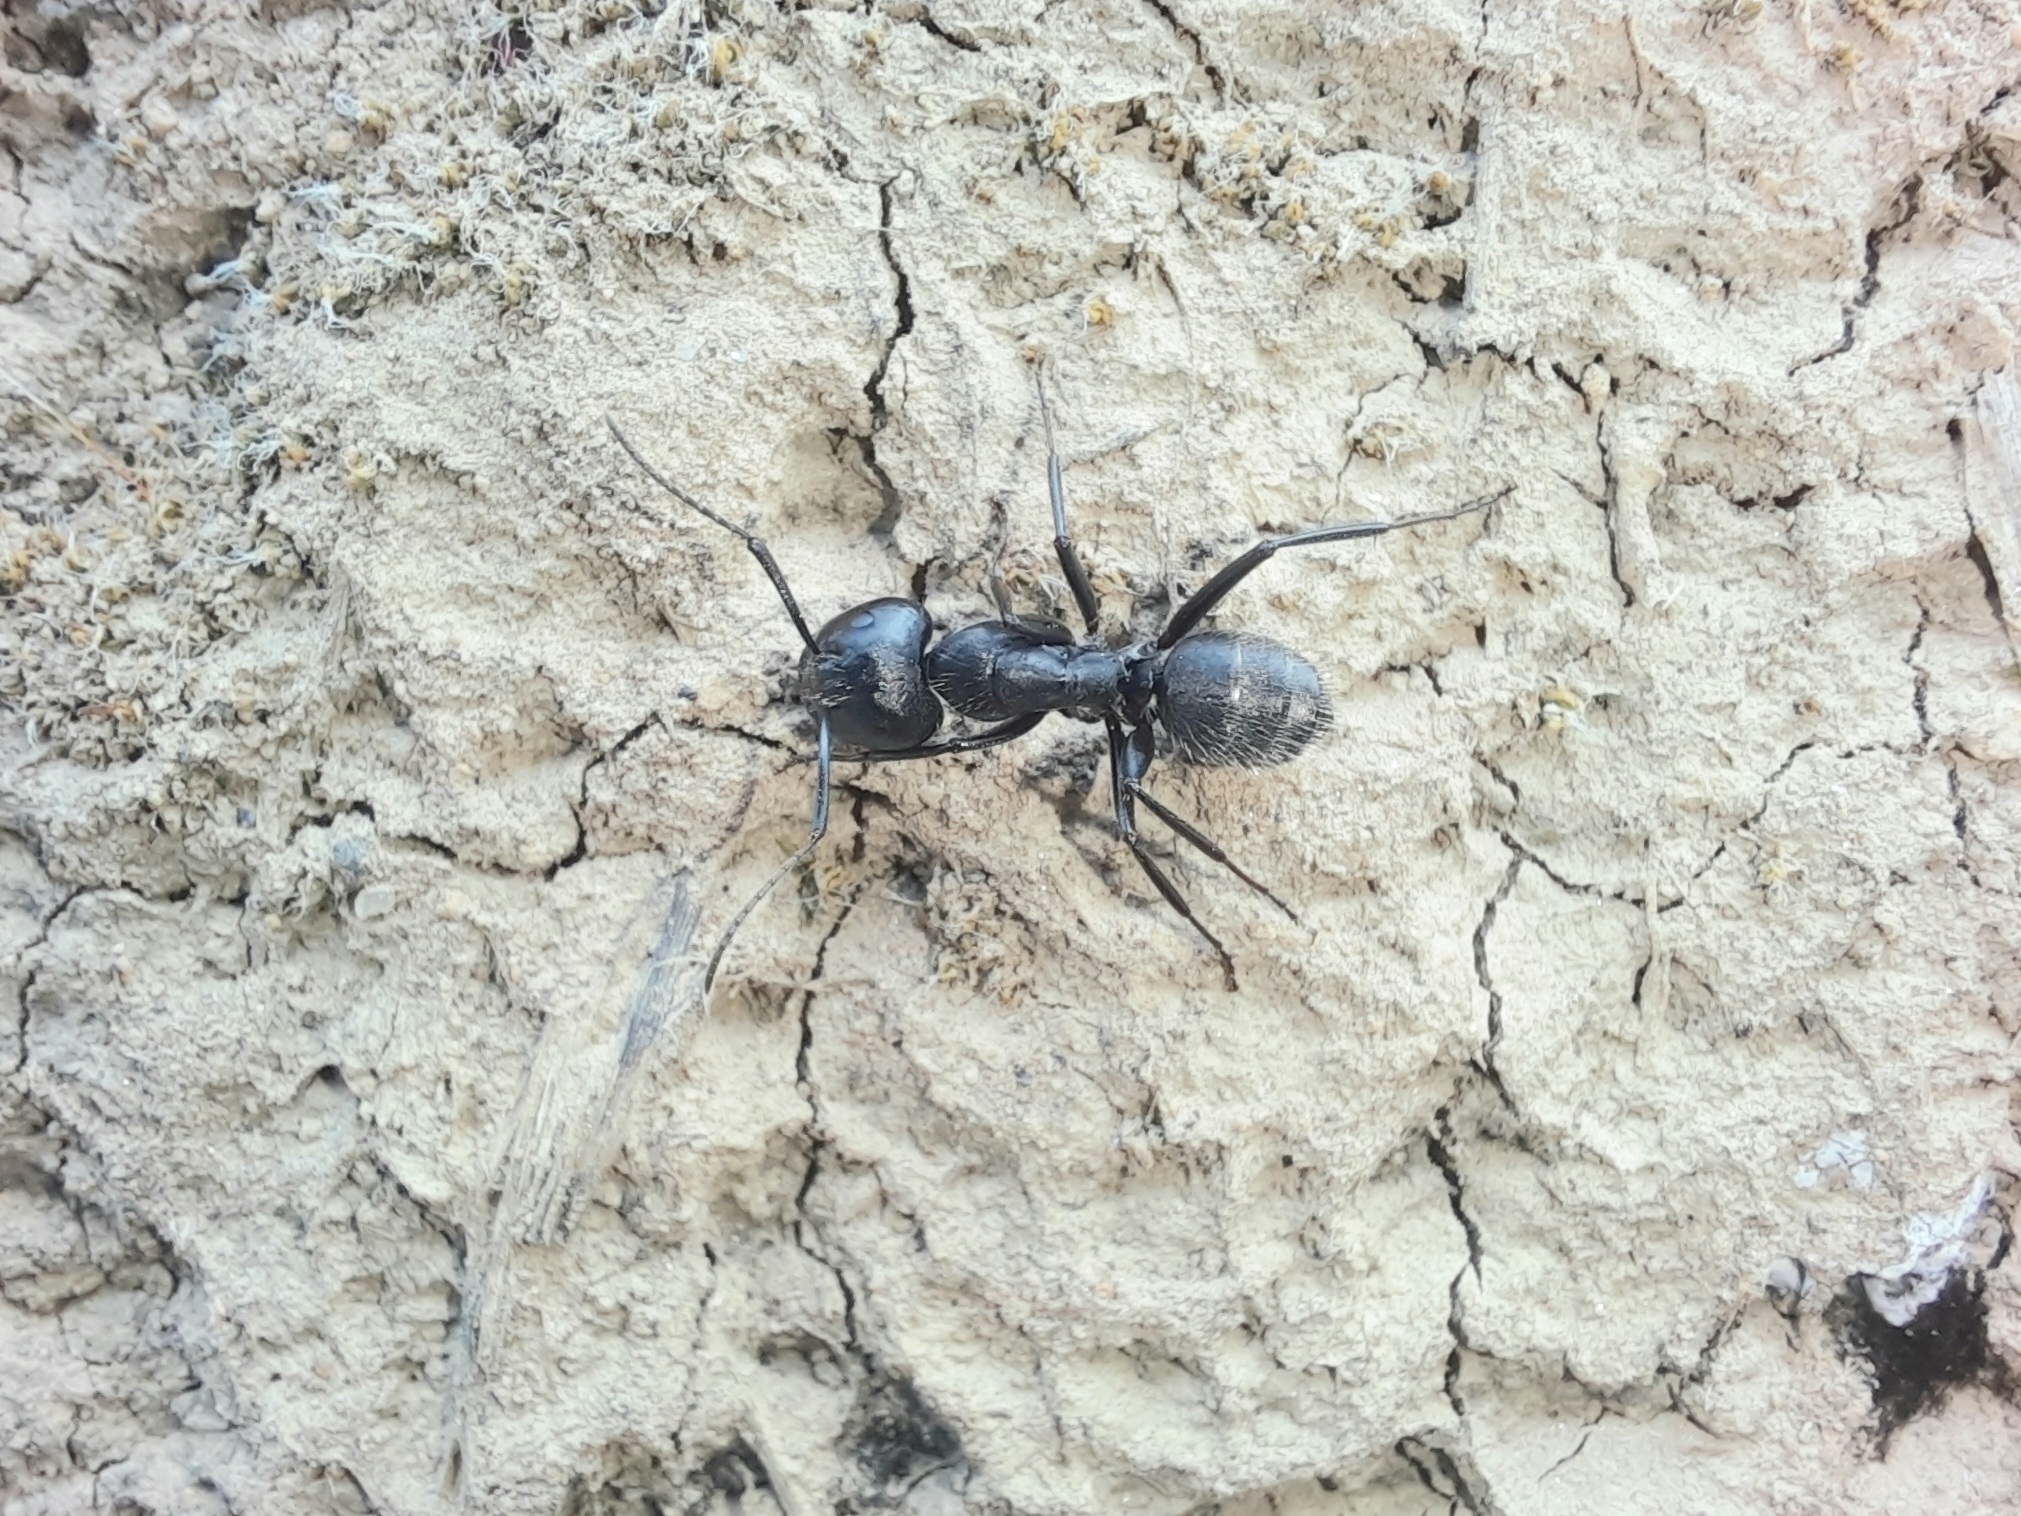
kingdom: Animalia
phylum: Arthropoda
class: Insecta
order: Hymenoptera
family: Formicidae
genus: Camponotus
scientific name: Camponotus vagus
